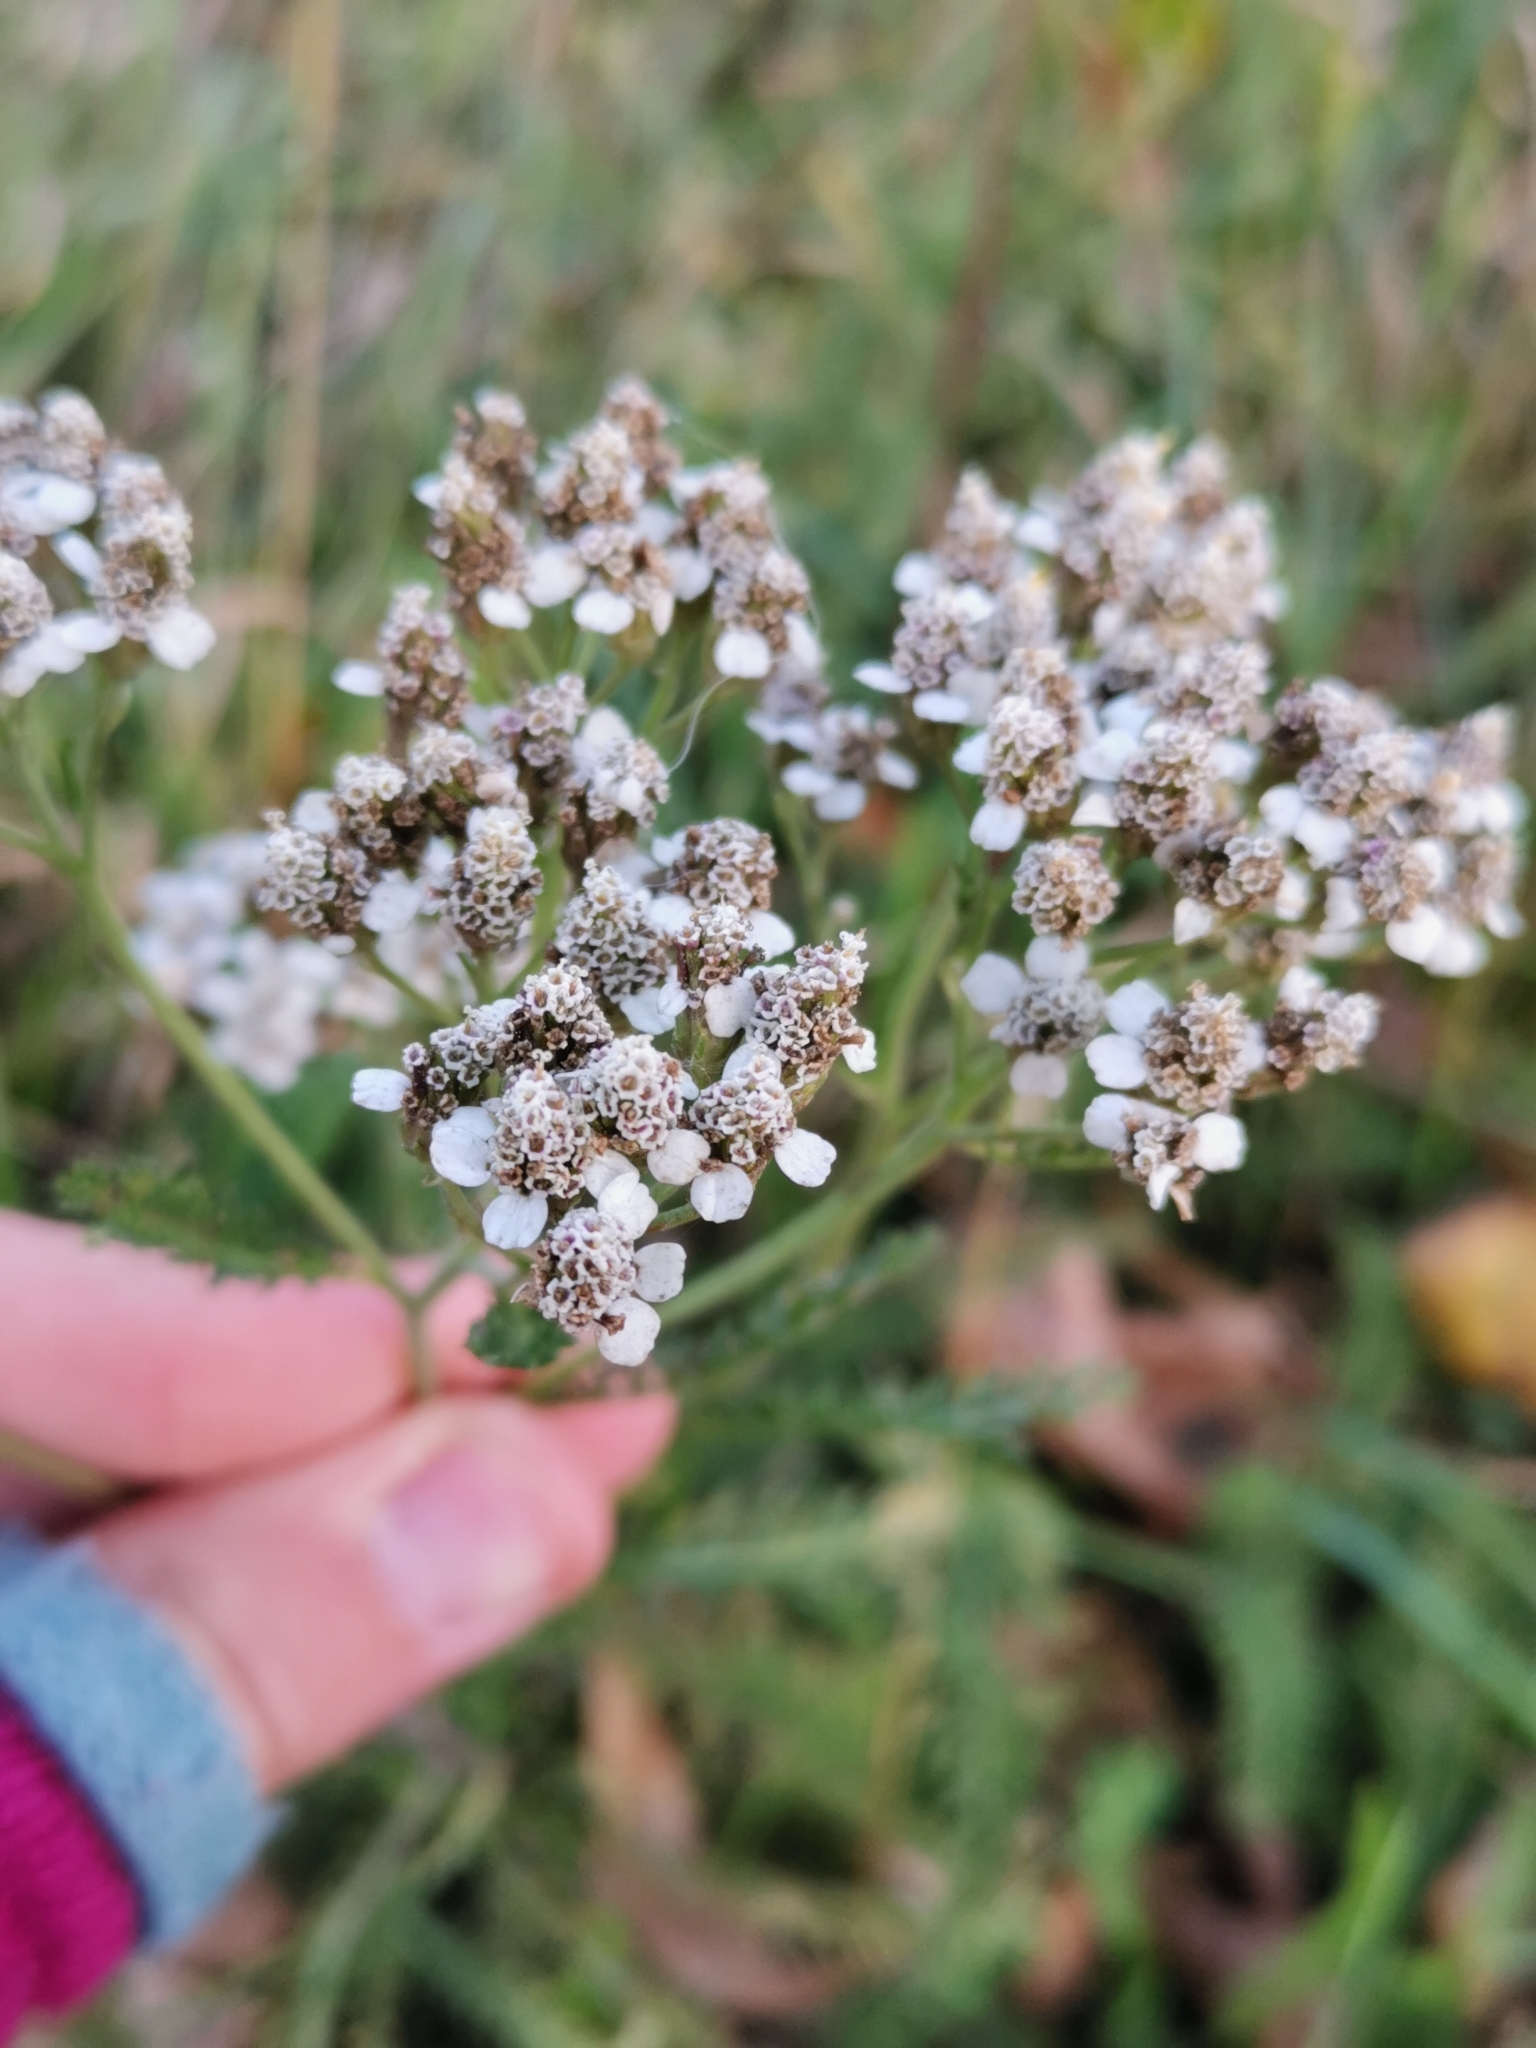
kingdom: Plantae
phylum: Tracheophyta
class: Magnoliopsida
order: Asterales
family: Asteraceae
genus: Achillea
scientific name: Achillea millefolium
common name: Yarrow
